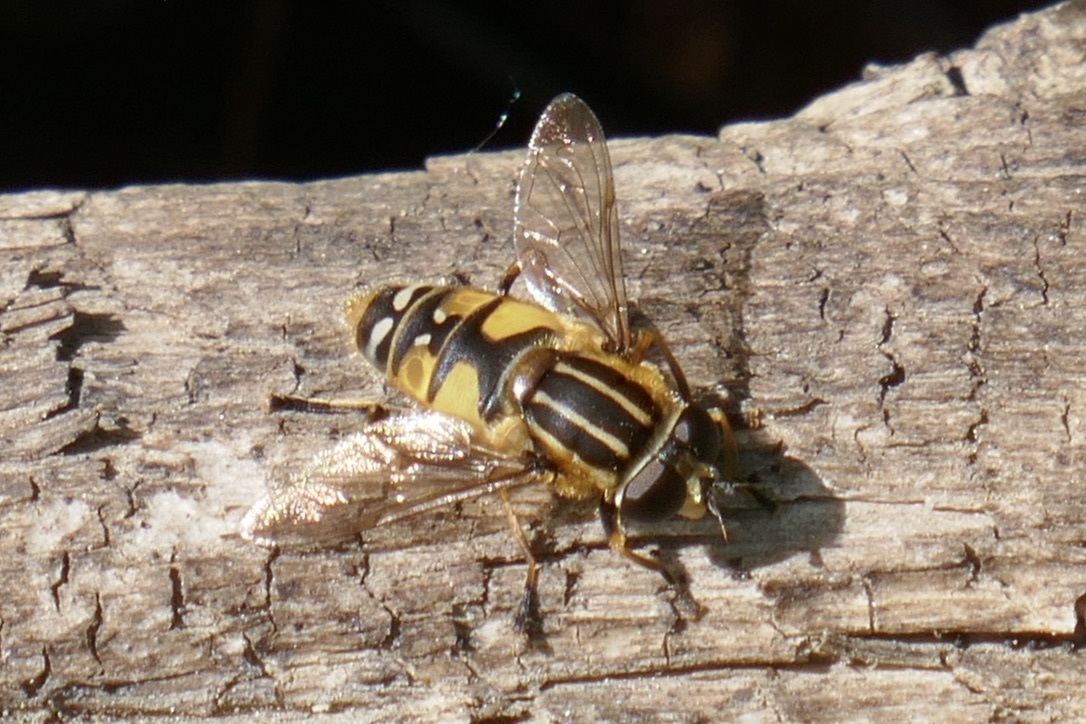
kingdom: Animalia
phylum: Arthropoda
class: Insecta
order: Diptera
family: Syrphidae
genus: Helophilus
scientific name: Helophilus pendulus
